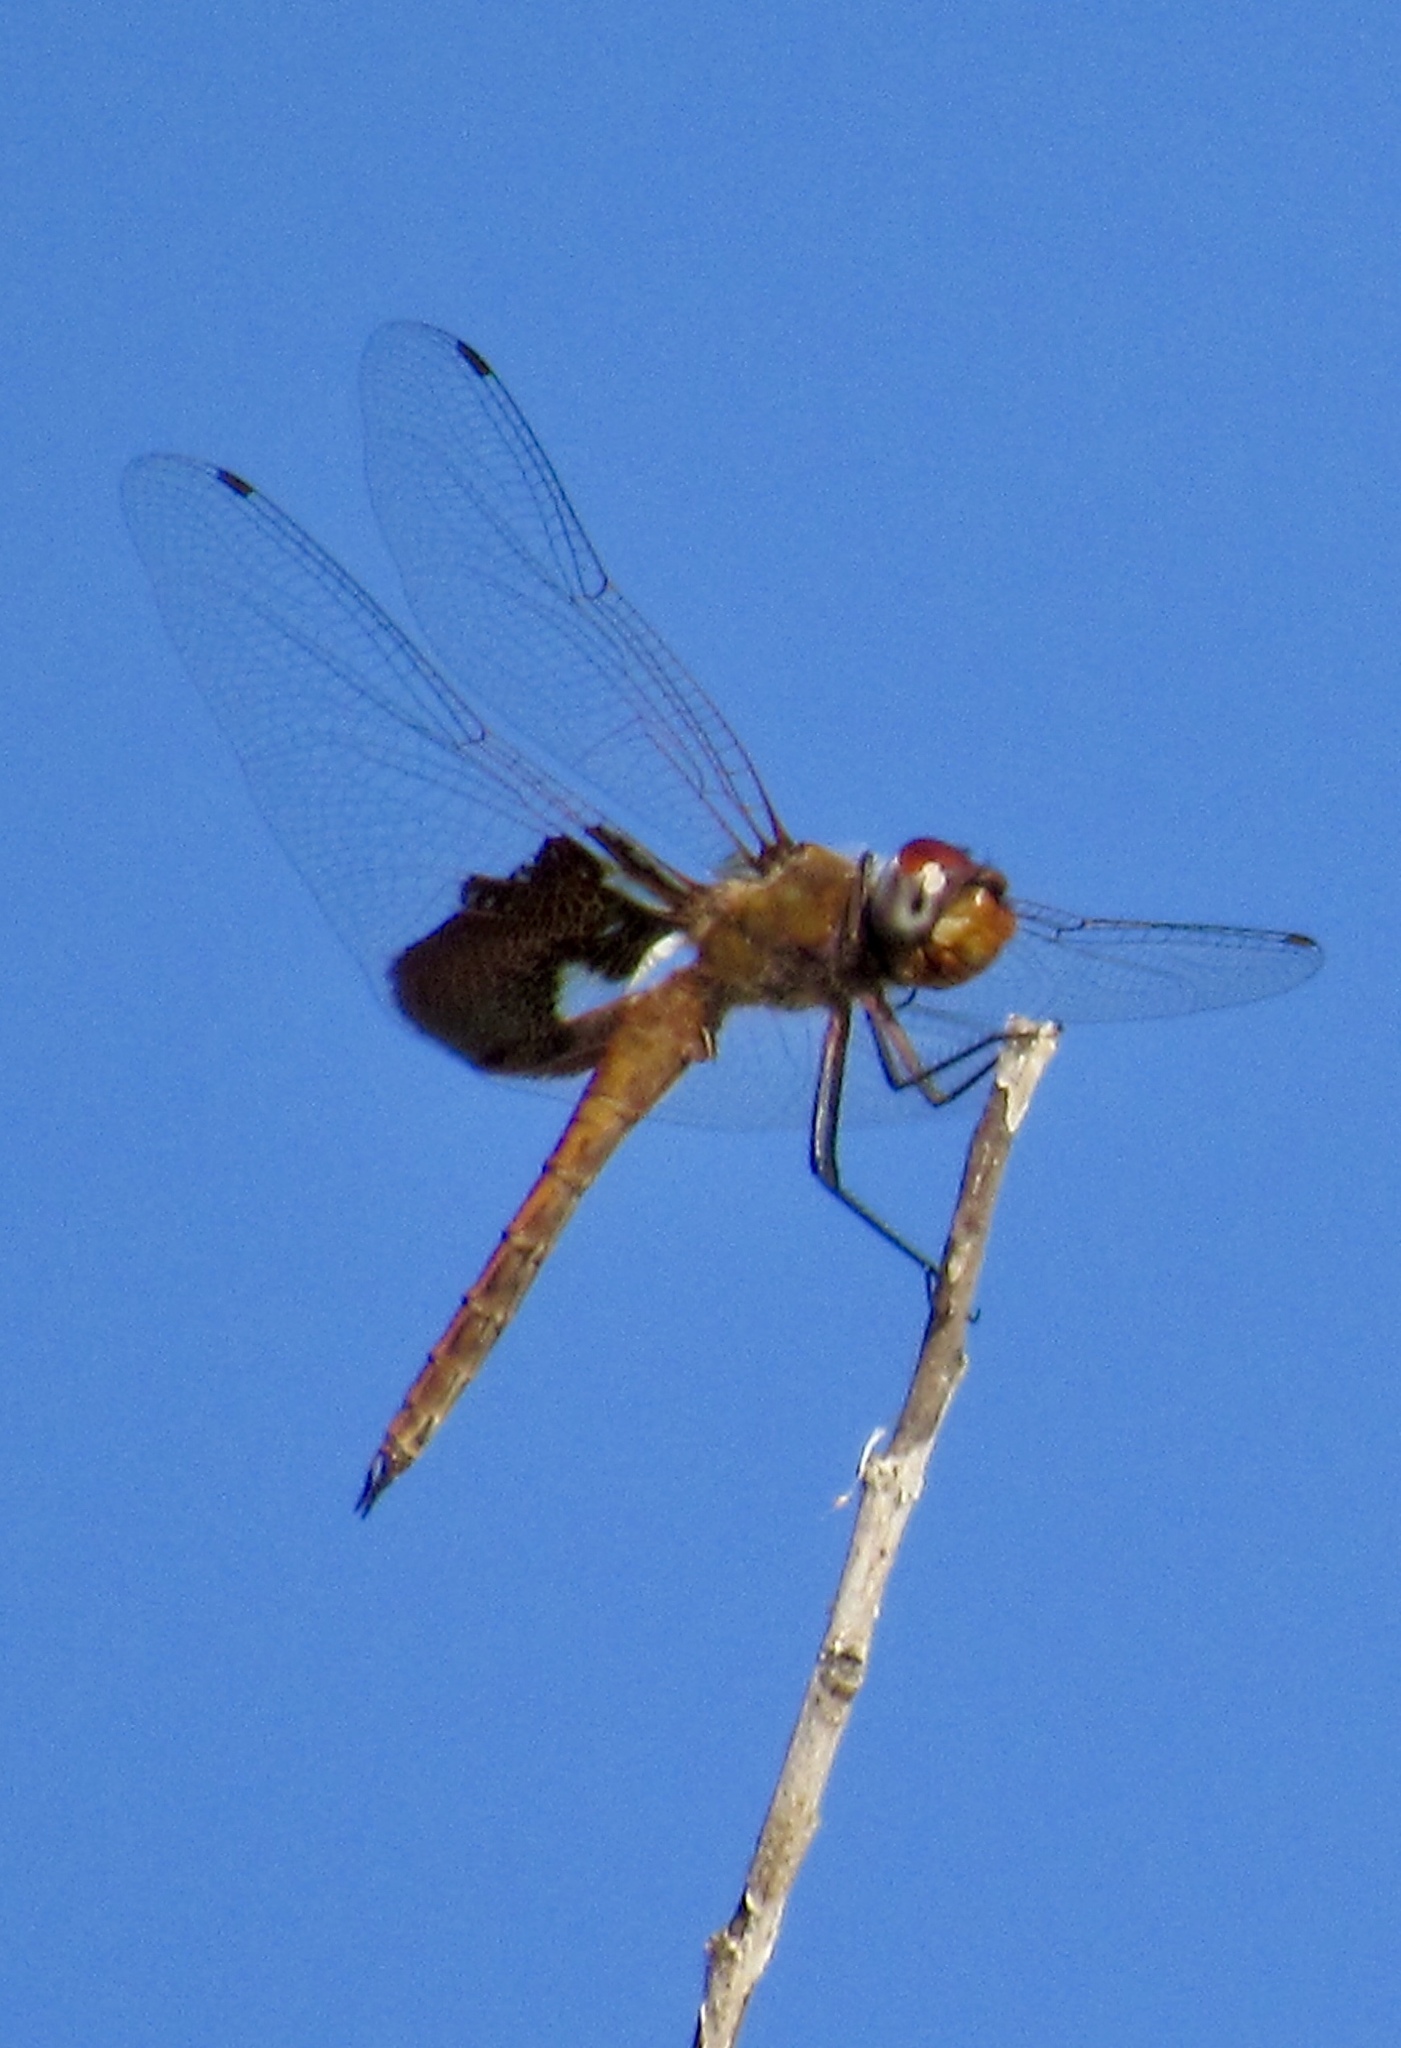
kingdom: Animalia
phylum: Arthropoda
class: Insecta
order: Odonata
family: Libellulidae
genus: Tramea
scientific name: Tramea onusta
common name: Red saddlebags
